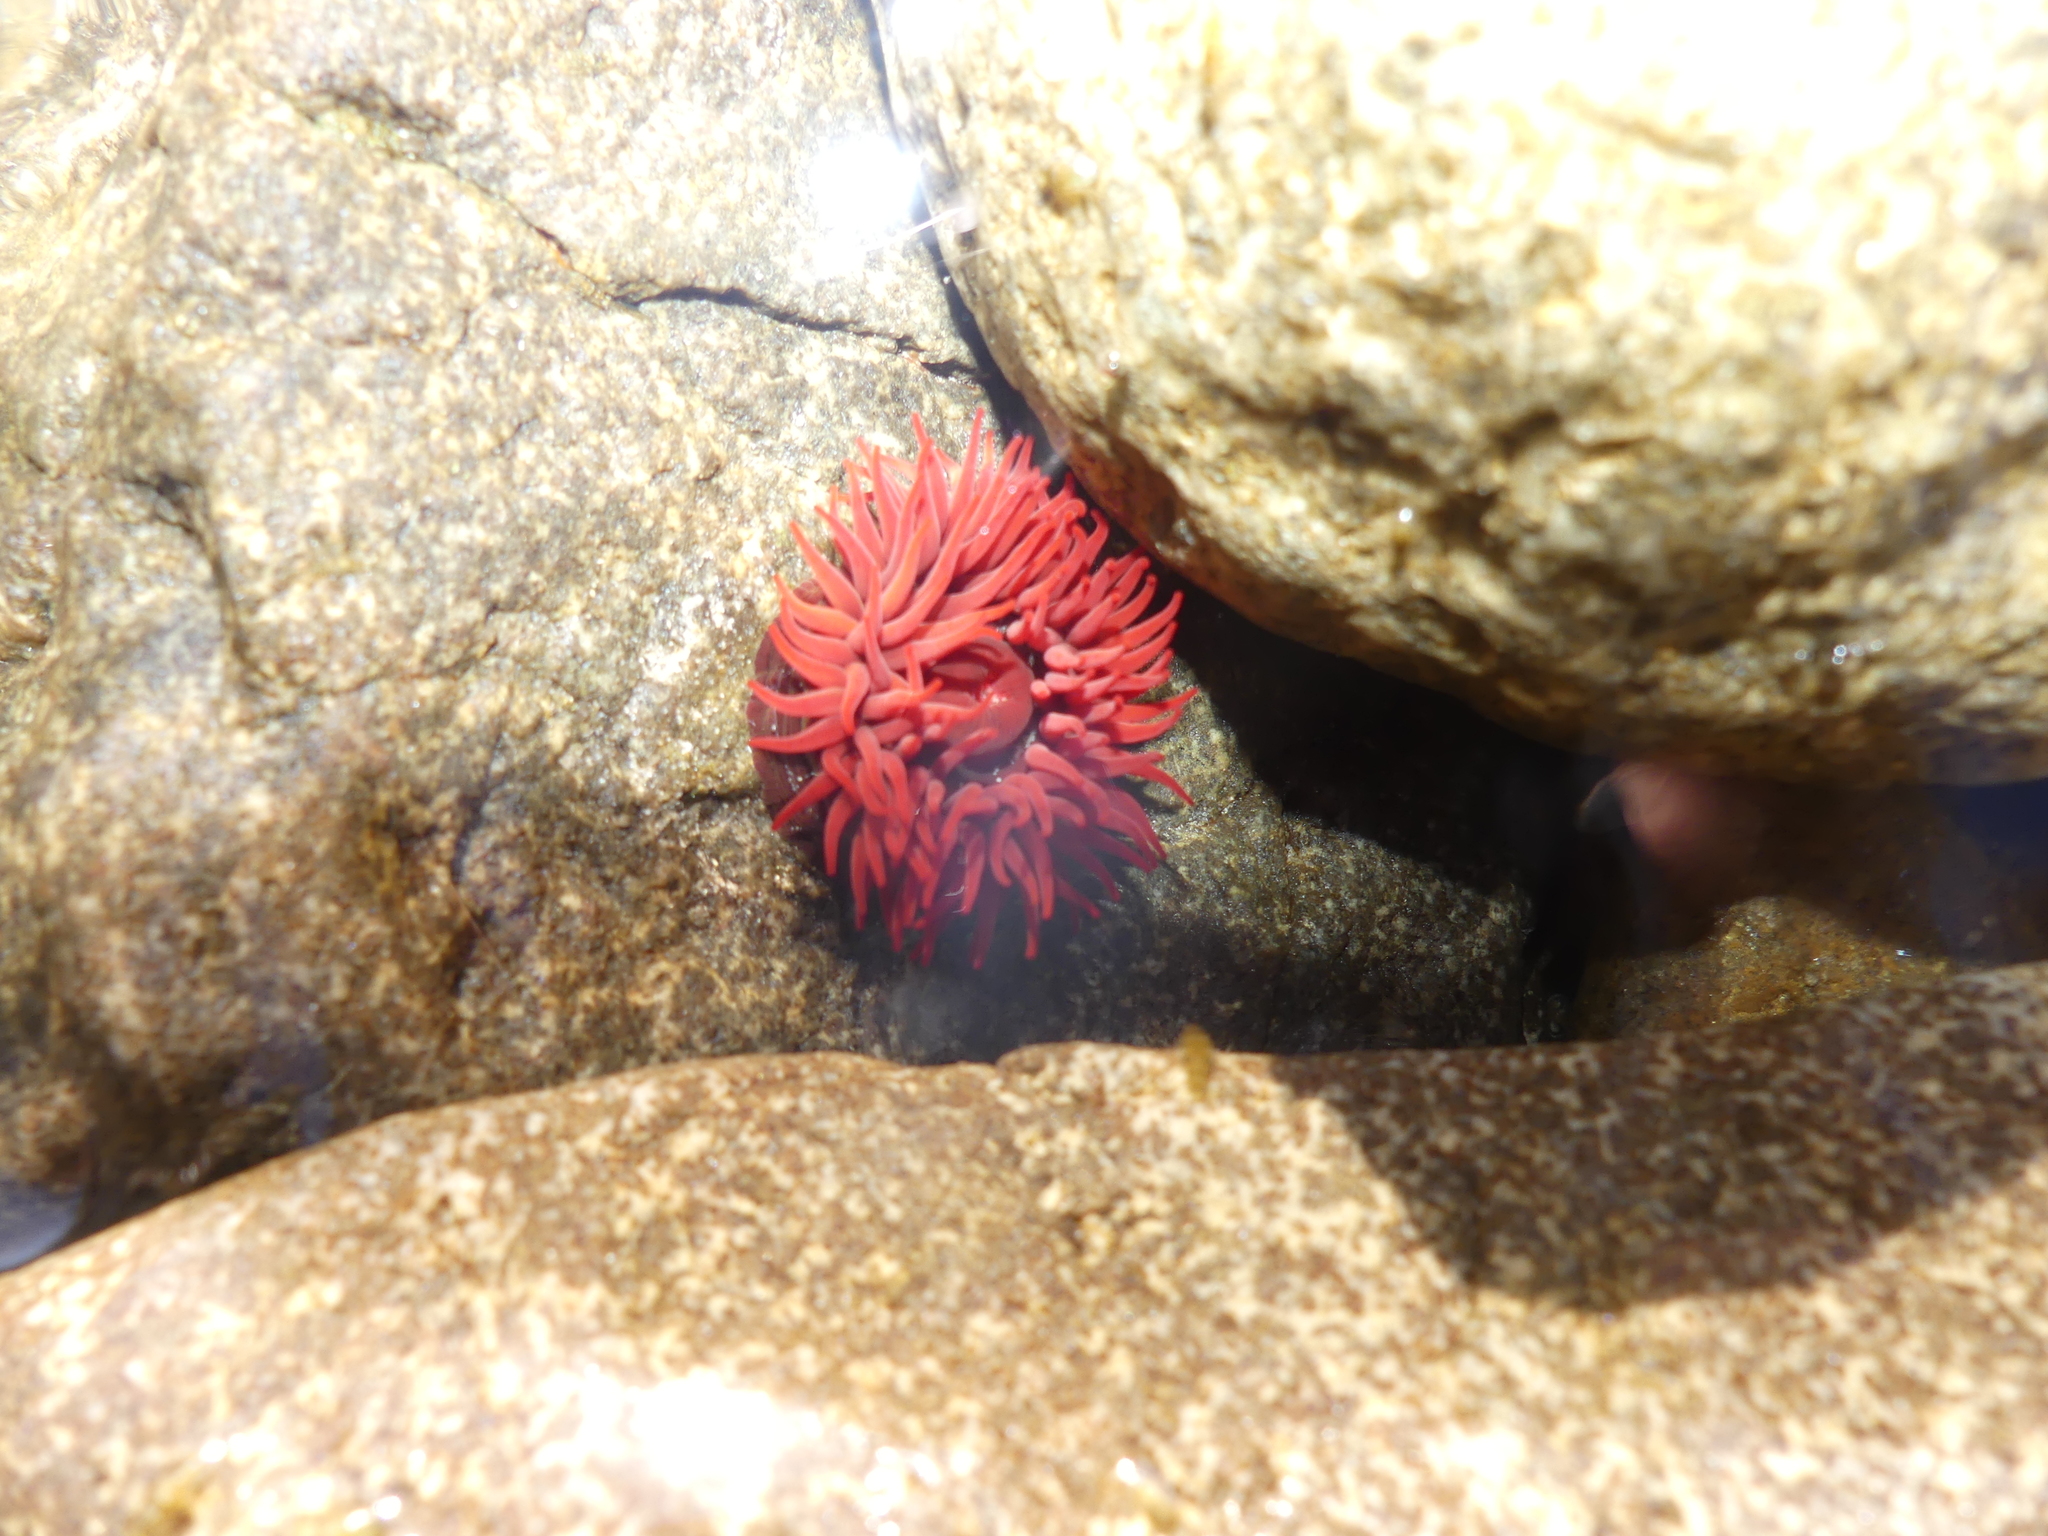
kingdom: Animalia
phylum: Cnidaria
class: Anthozoa
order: Actiniaria
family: Actiniidae
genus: Actinia
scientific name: Actinia tenebrosa
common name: Waratah anemone
